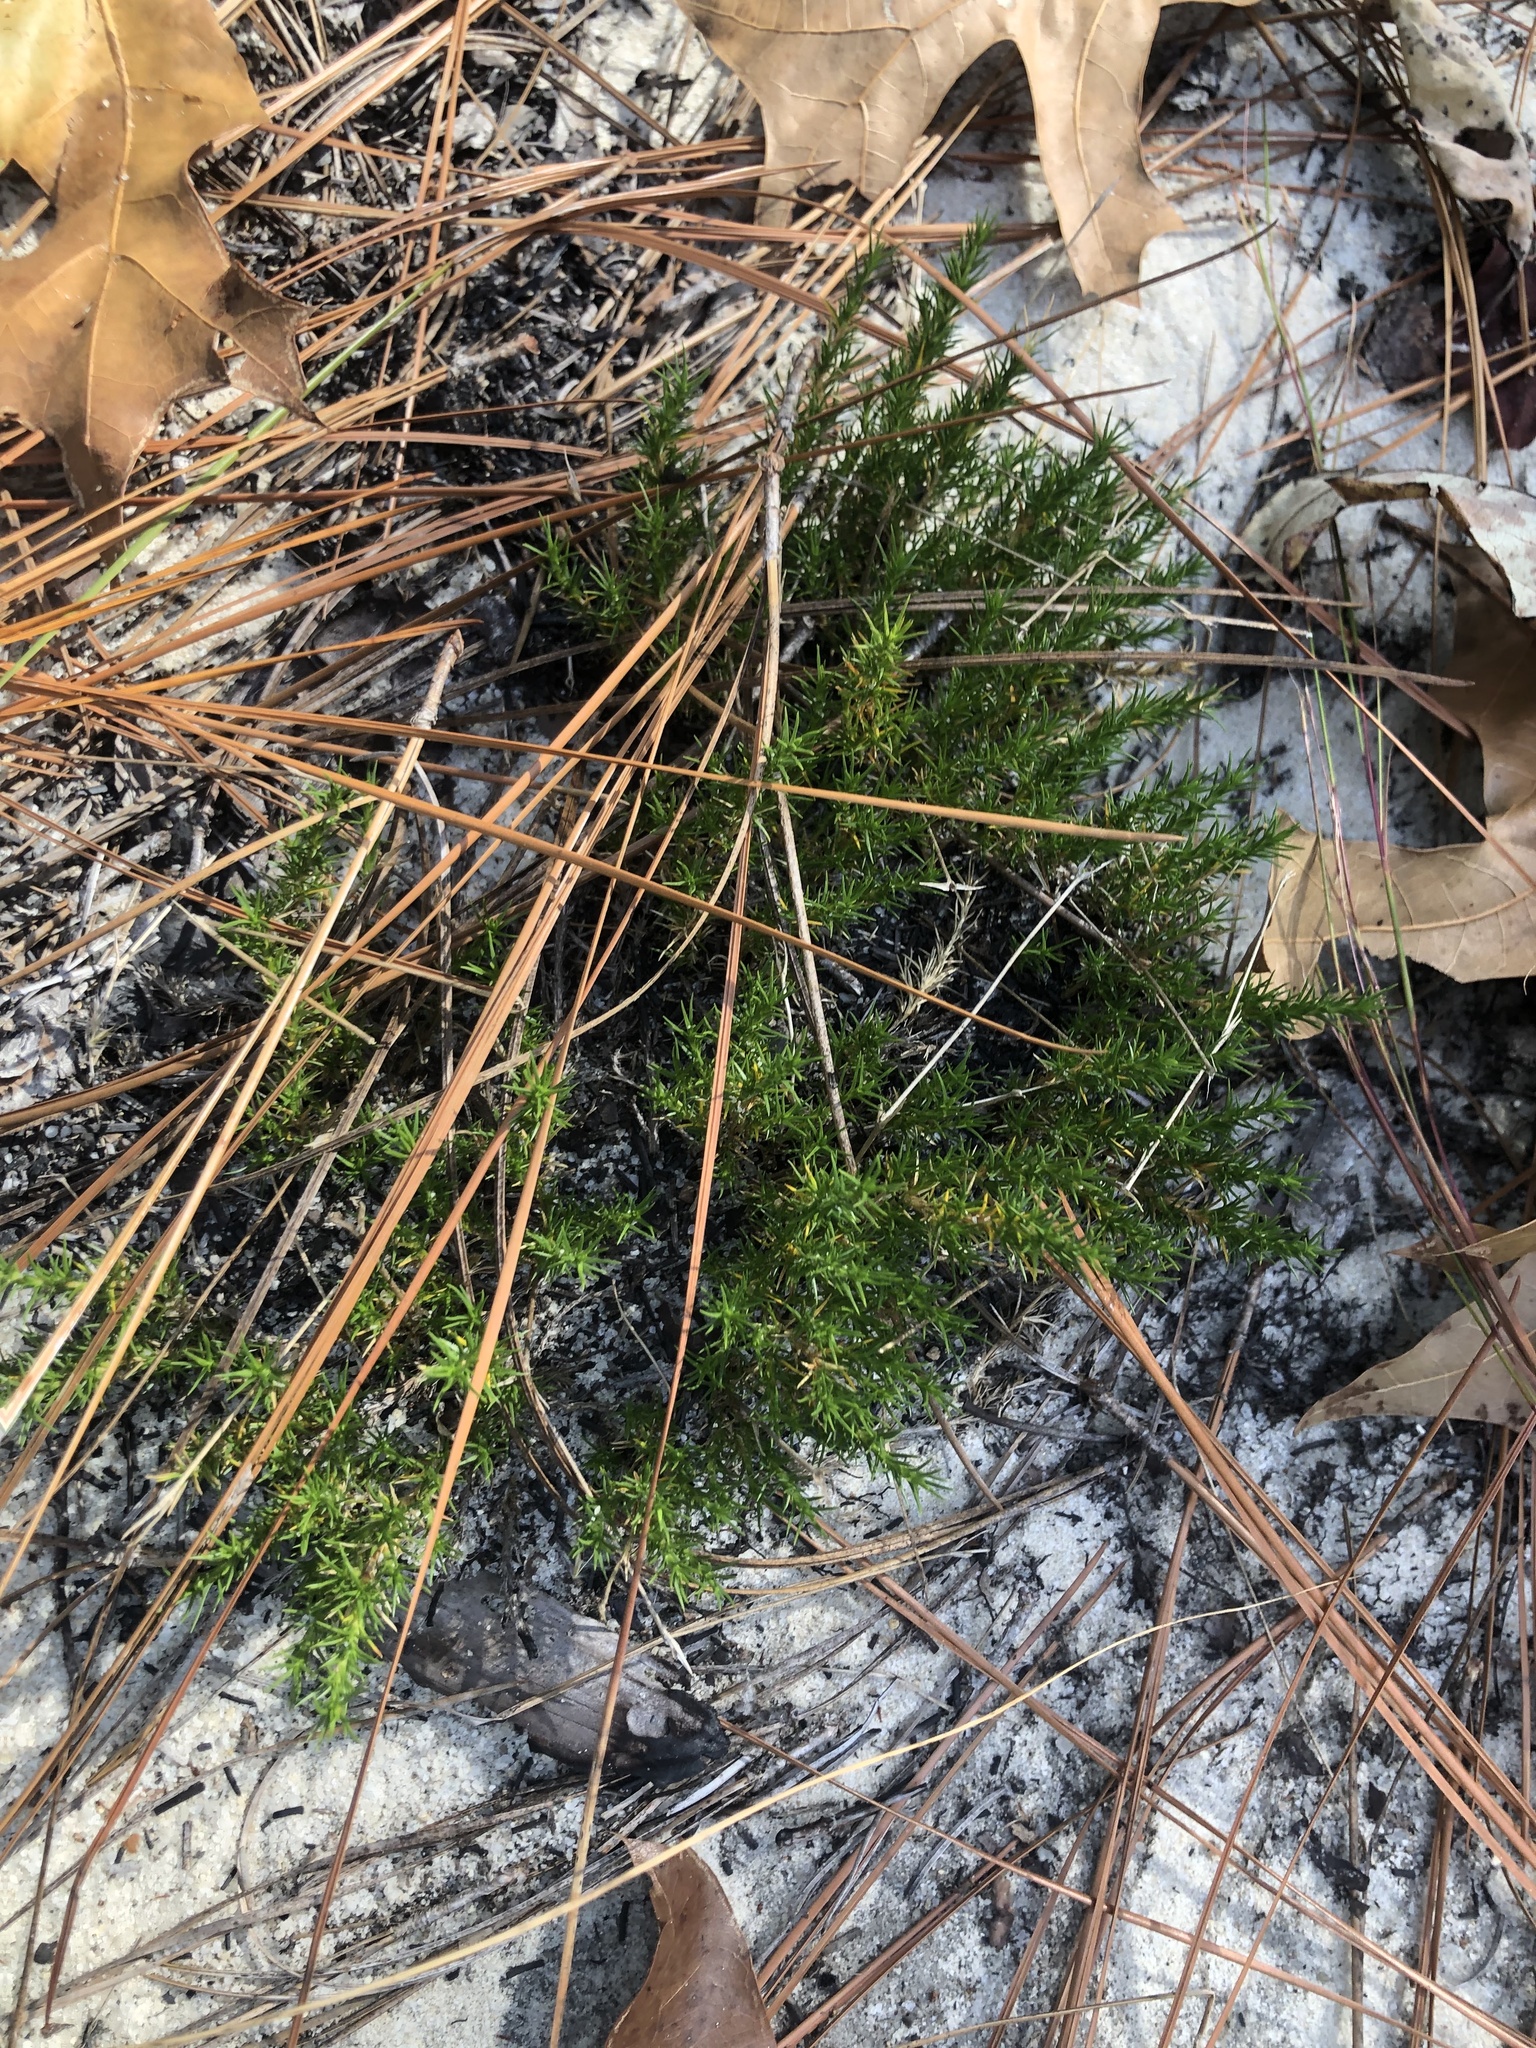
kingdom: Plantae
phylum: Tracheophyta
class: Magnoliopsida
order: Caryophyllales
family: Caryophyllaceae
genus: Geocarpon
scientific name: Geocarpon carolinianum
